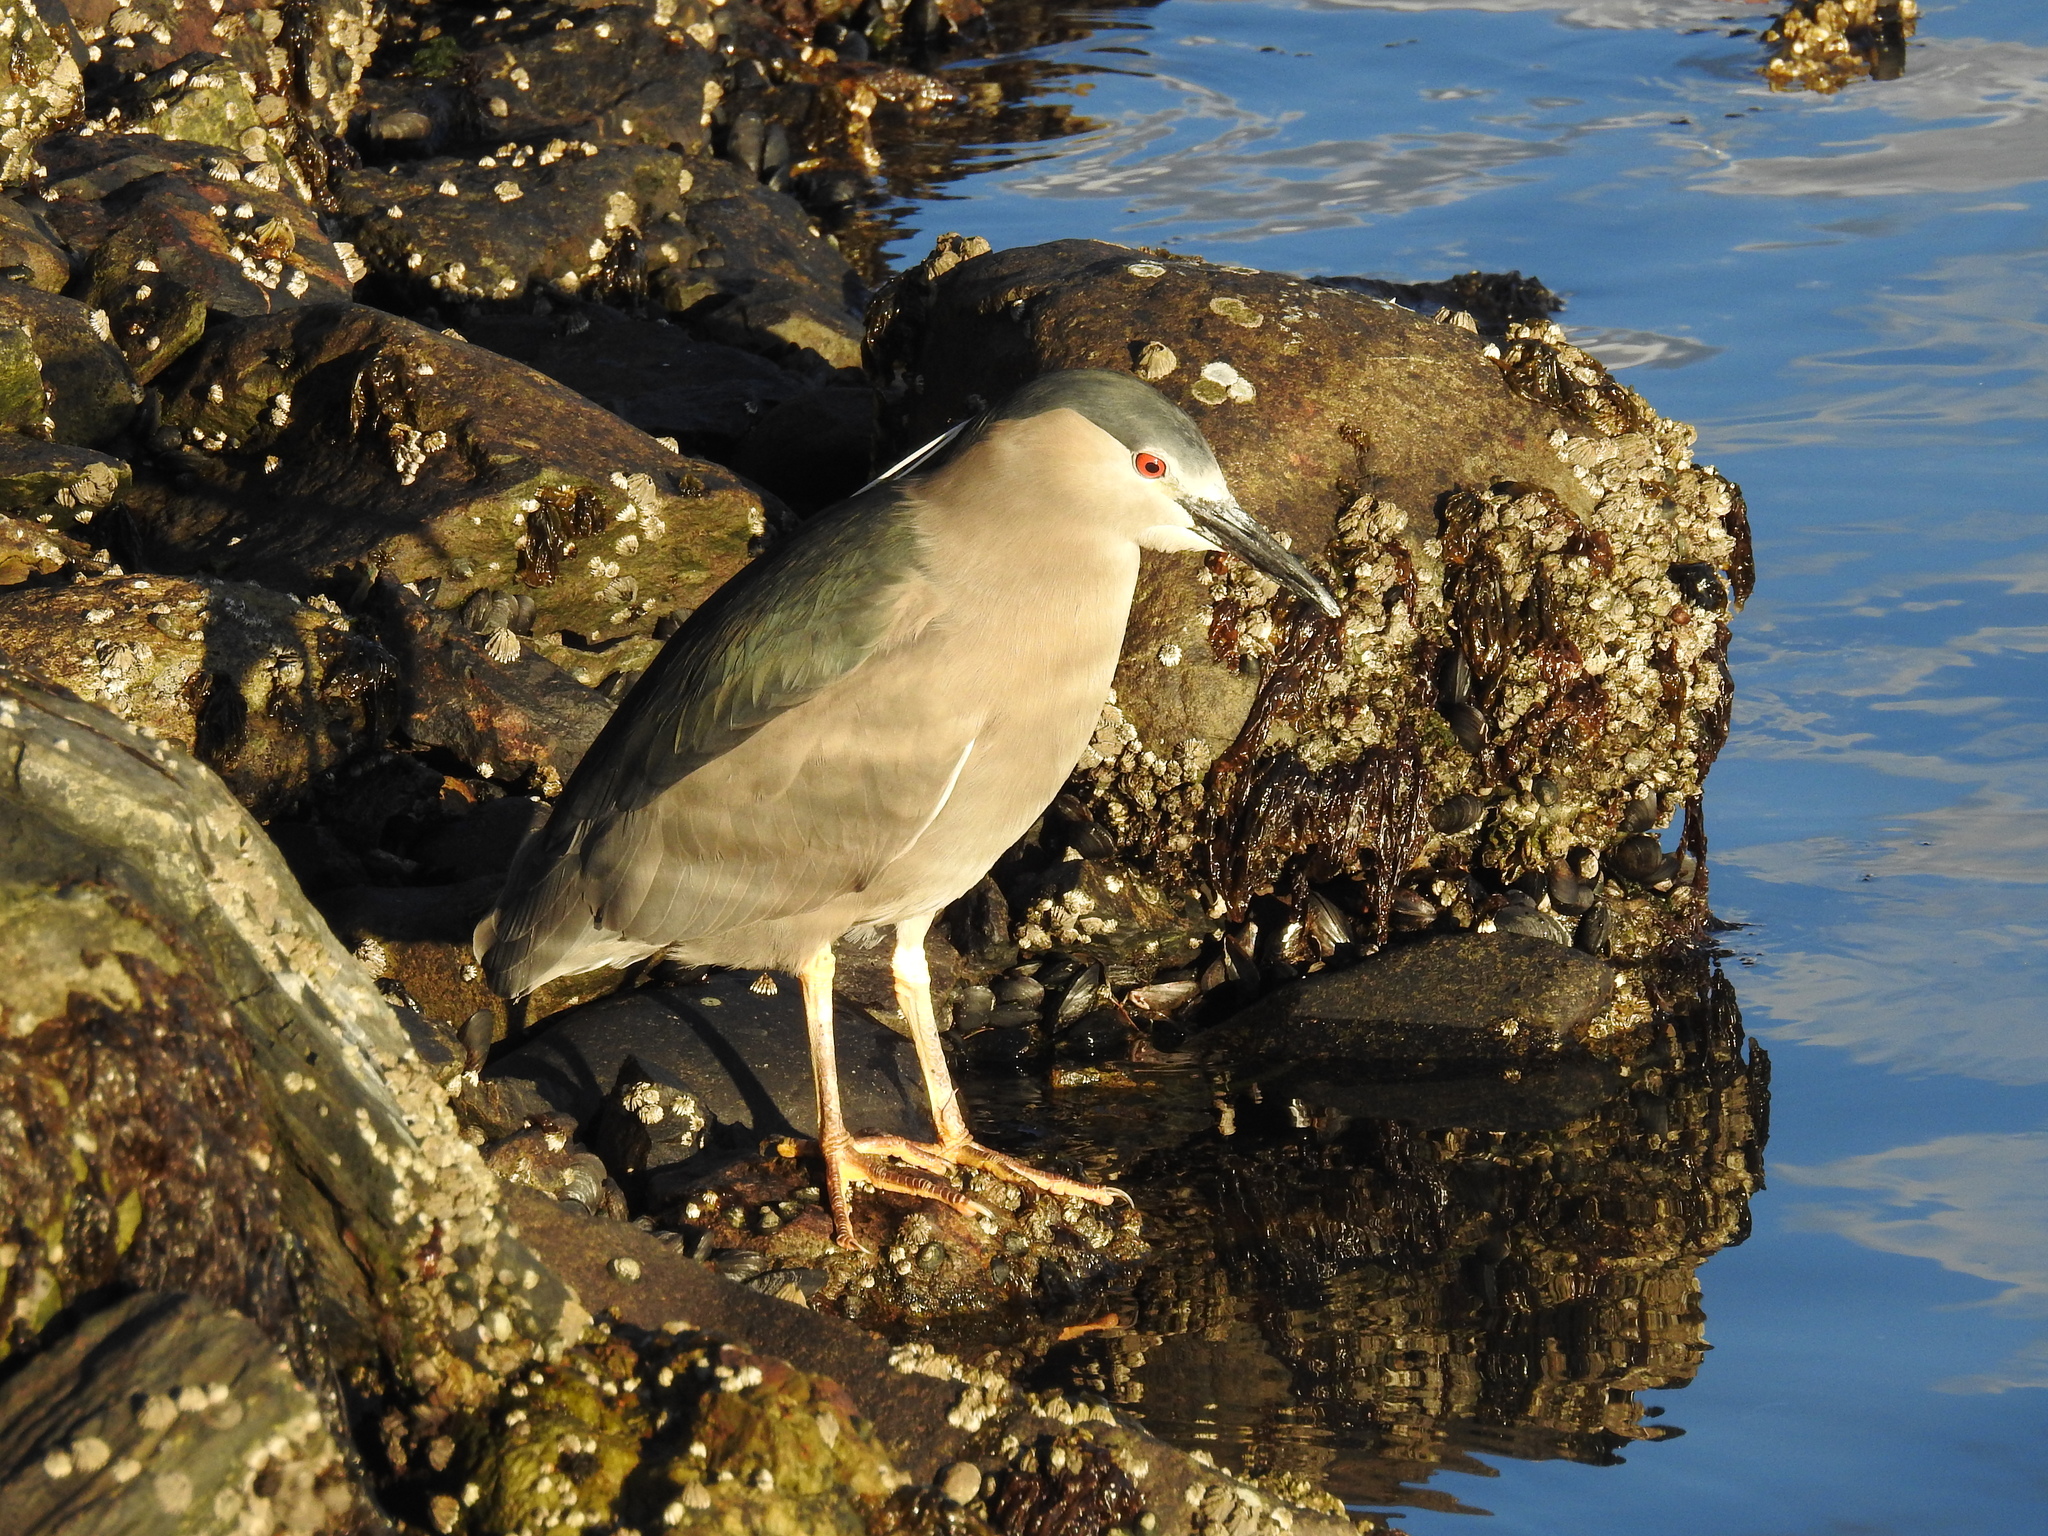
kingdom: Animalia
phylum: Chordata
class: Aves
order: Pelecaniformes
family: Ardeidae
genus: Nycticorax
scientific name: Nycticorax nycticorax
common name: Black-crowned night heron
